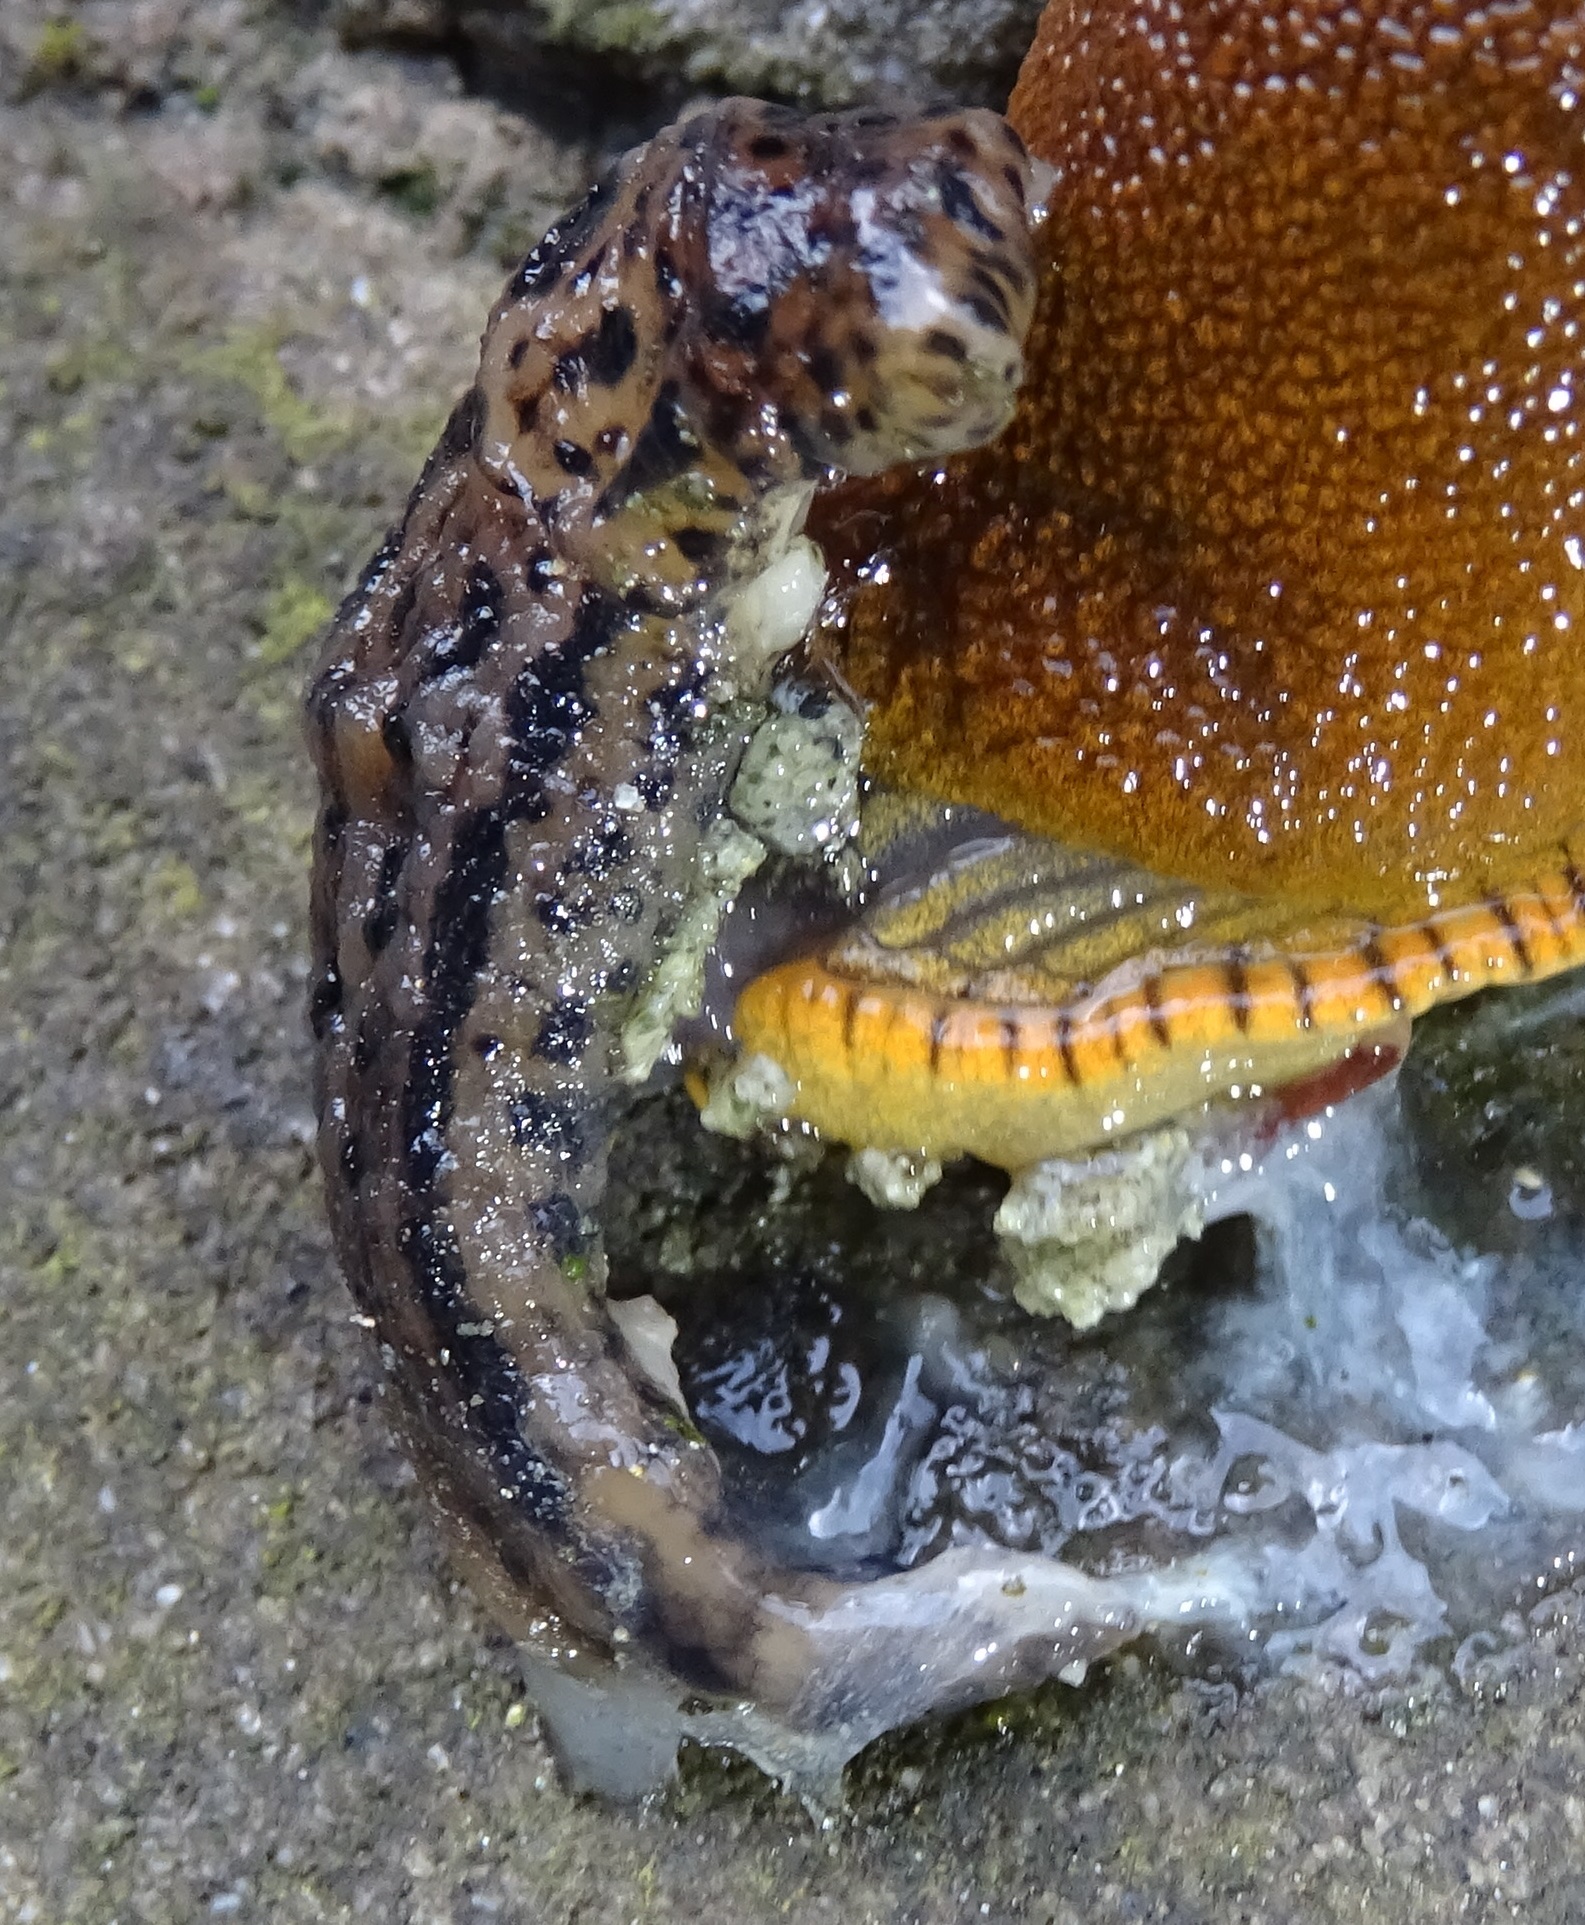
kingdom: Animalia
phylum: Mollusca
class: Gastropoda
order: Stylommatophora
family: Limacidae
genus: Limax
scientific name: Limax maximus
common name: Great grey slug
